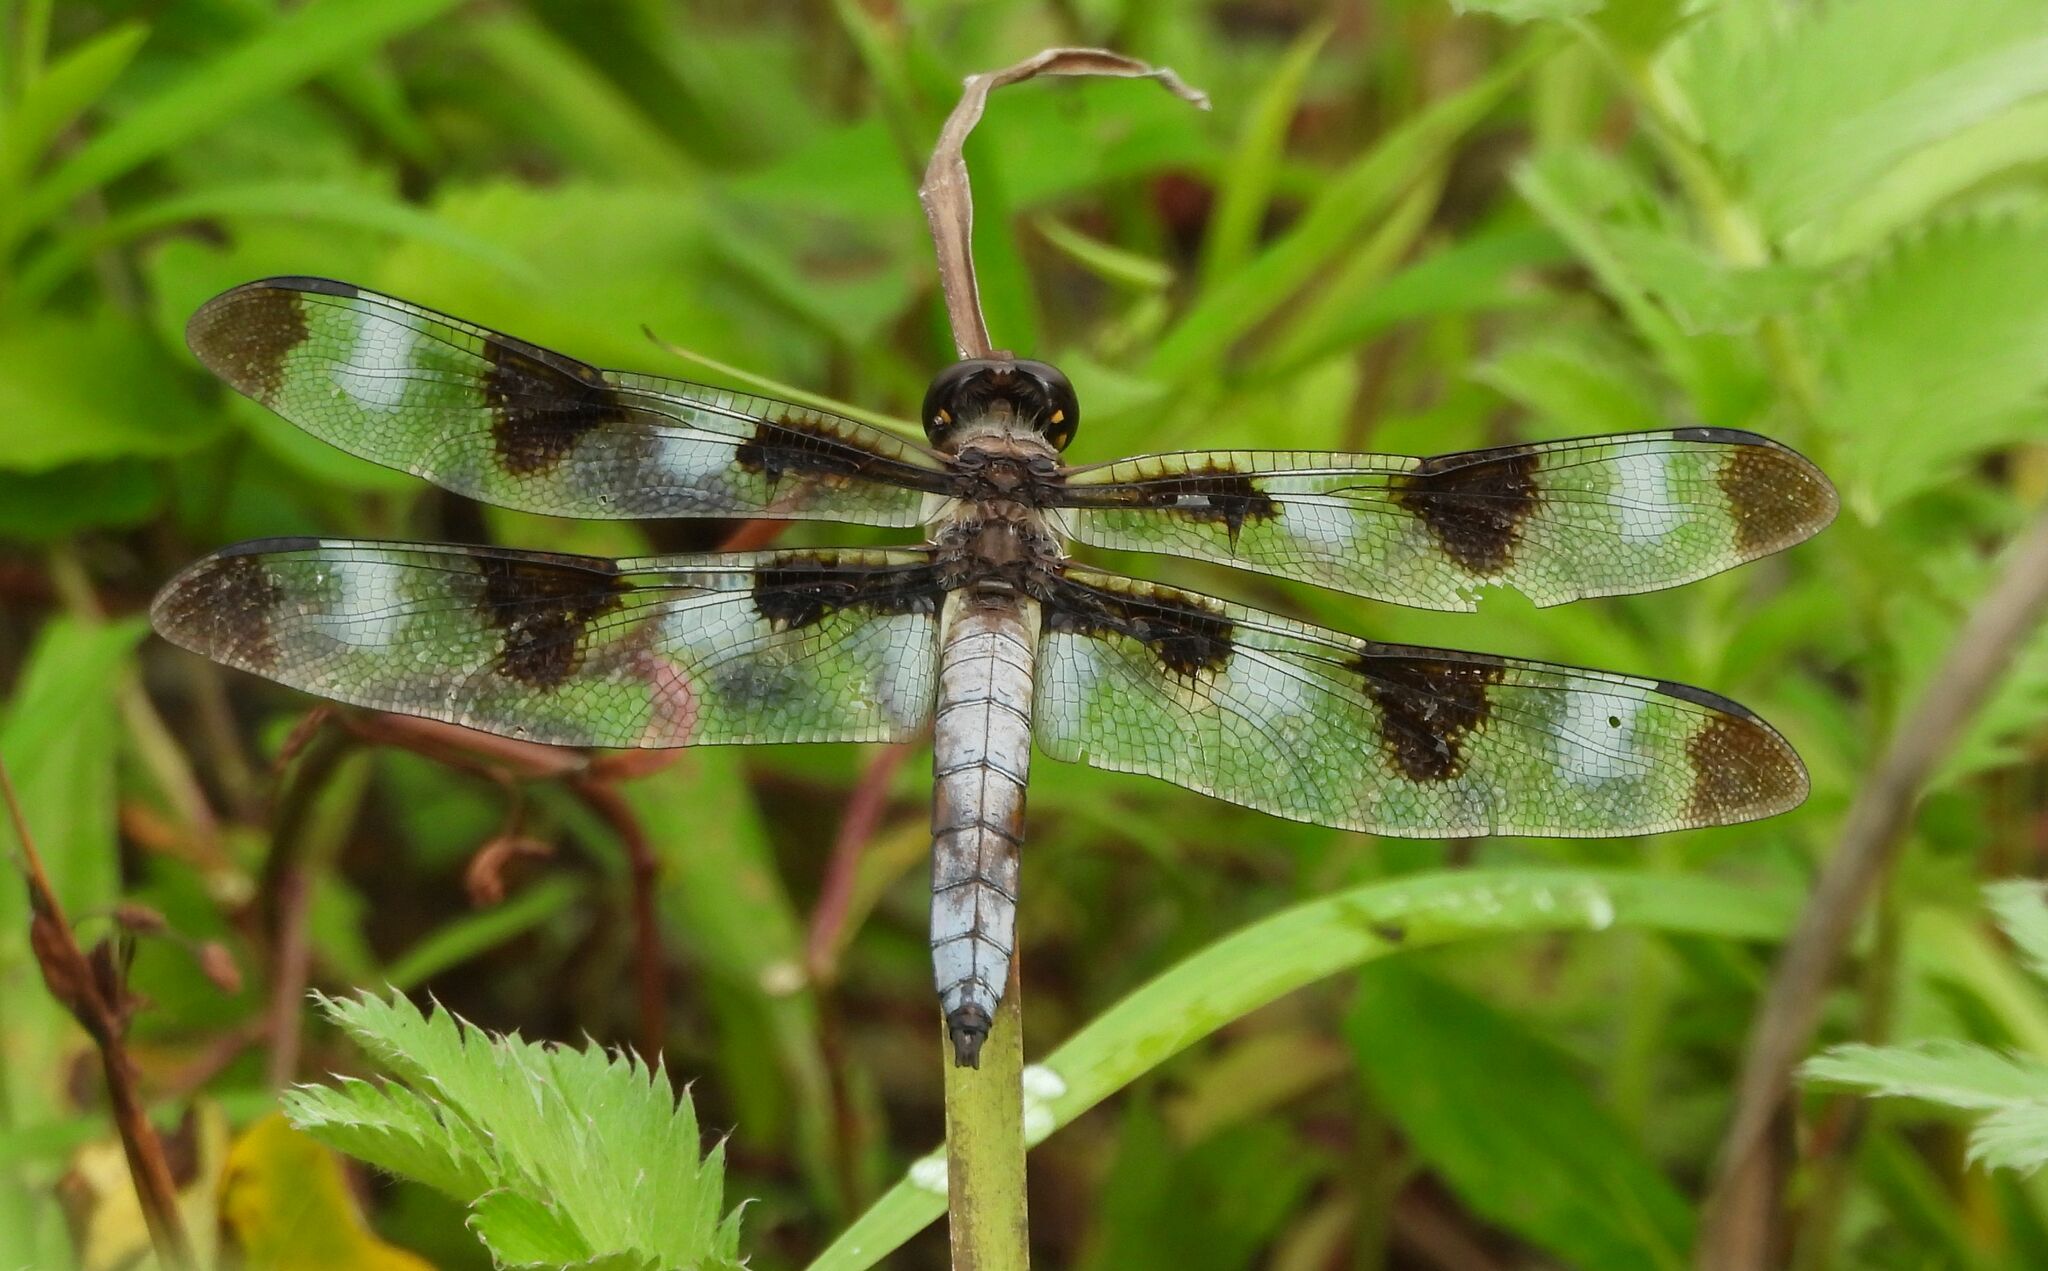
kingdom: Animalia
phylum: Arthropoda
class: Insecta
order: Odonata
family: Libellulidae
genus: Libellula
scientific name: Libellula pulchella
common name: Twelve-spotted skimmer
